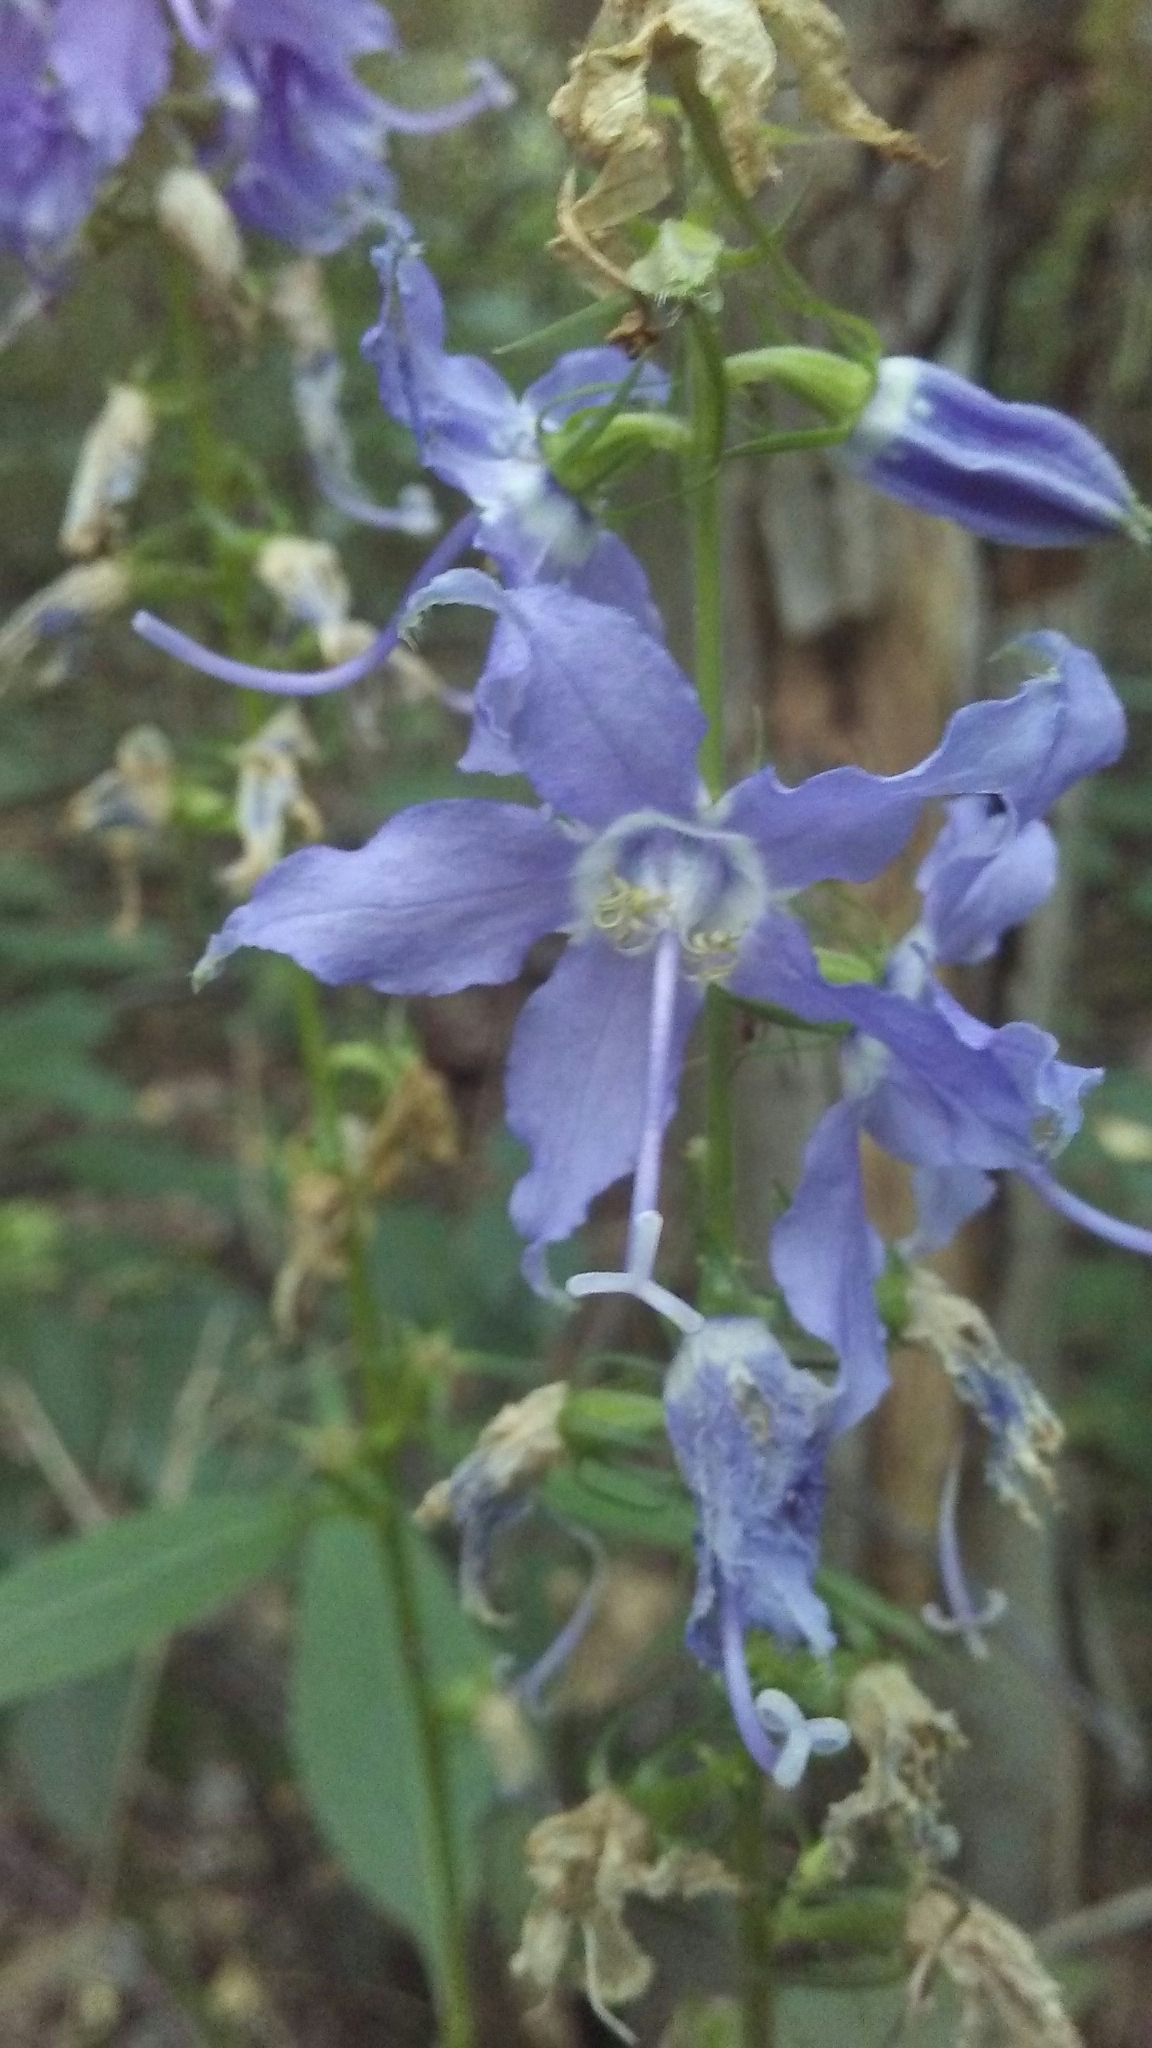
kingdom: Plantae
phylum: Tracheophyta
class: Magnoliopsida
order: Asterales
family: Campanulaceae
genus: Campanulastrum
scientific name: Campanulastrum americanum
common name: American bellflower
